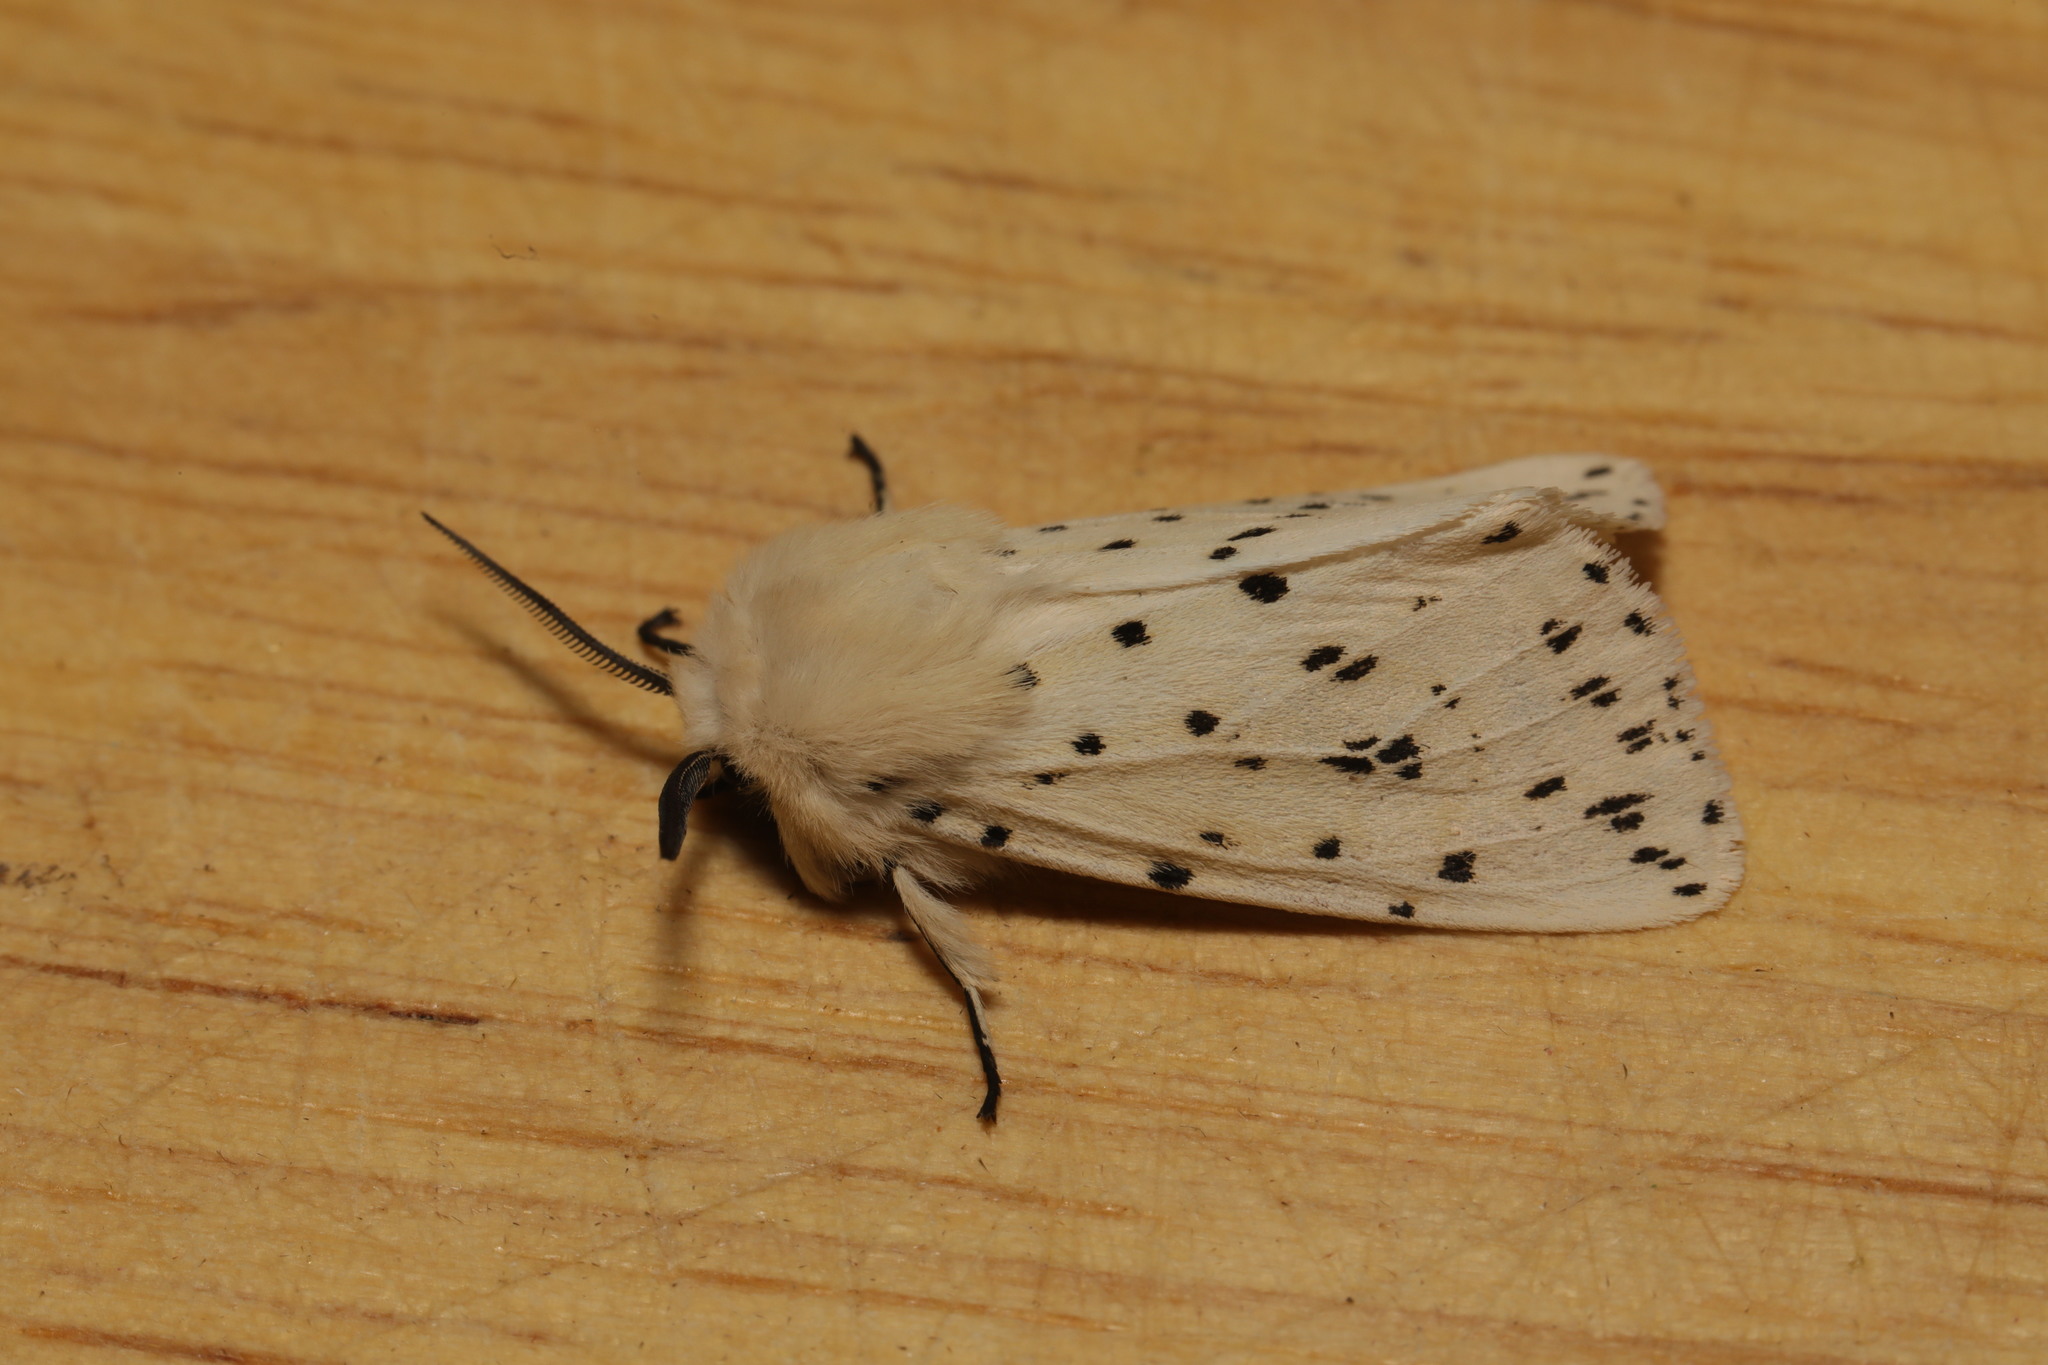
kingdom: Animalia
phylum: Arthropoda
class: Insecta
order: Lepidoptera
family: Erebidae
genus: Spilosoma
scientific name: Spilosoma lubricipeda
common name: White ermine
